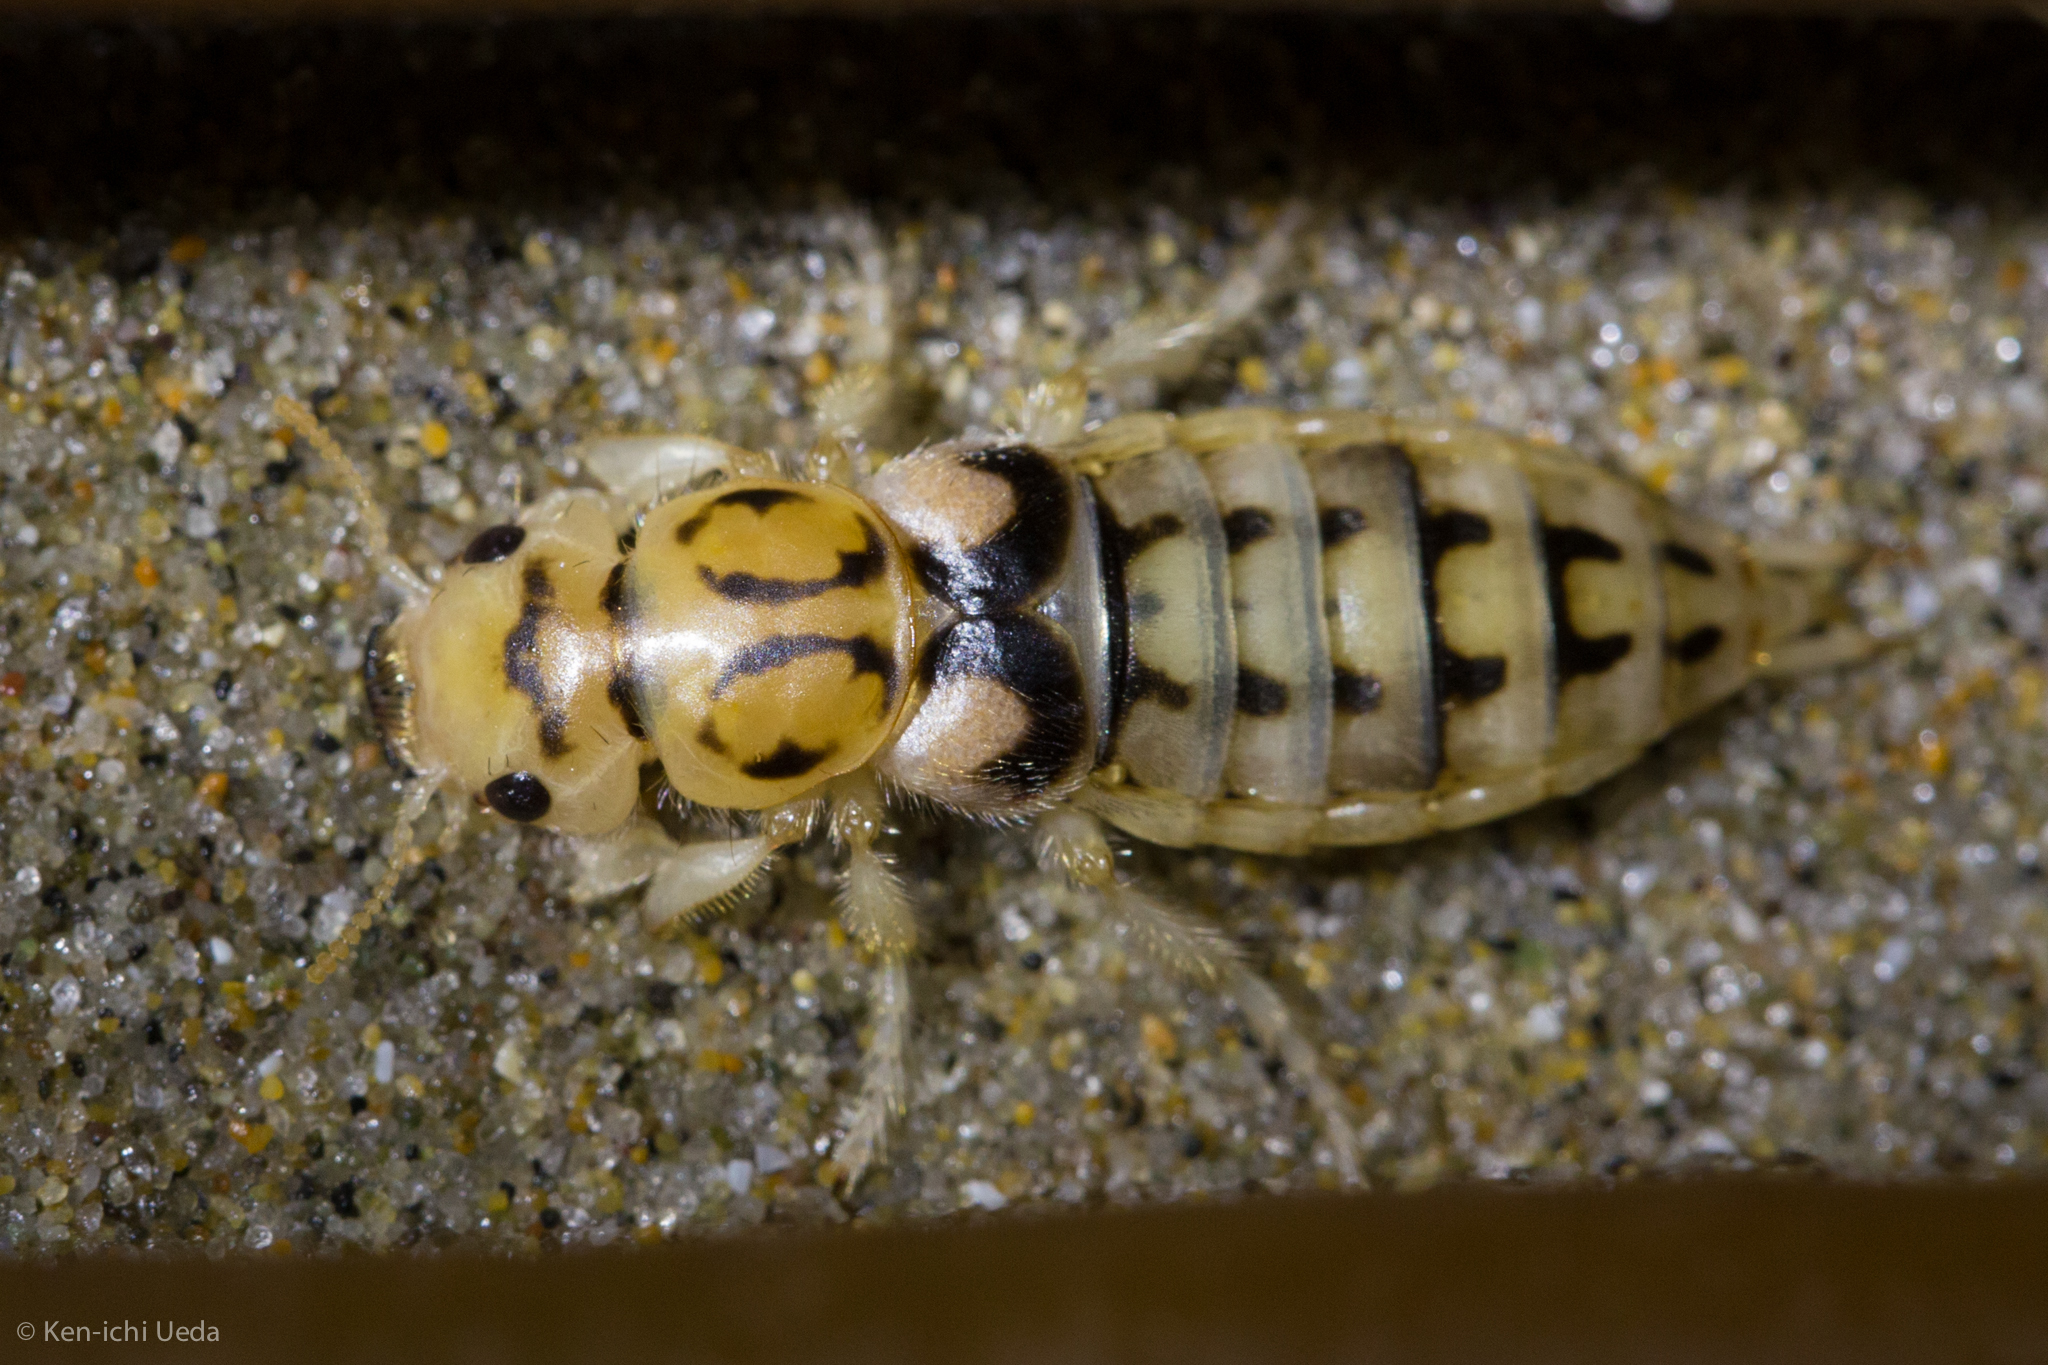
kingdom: Animalia
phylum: Arthropoda
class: Insecta
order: Coleoptera
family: Staphylinidae
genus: Thinopinus
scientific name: Thinopinus pictus
